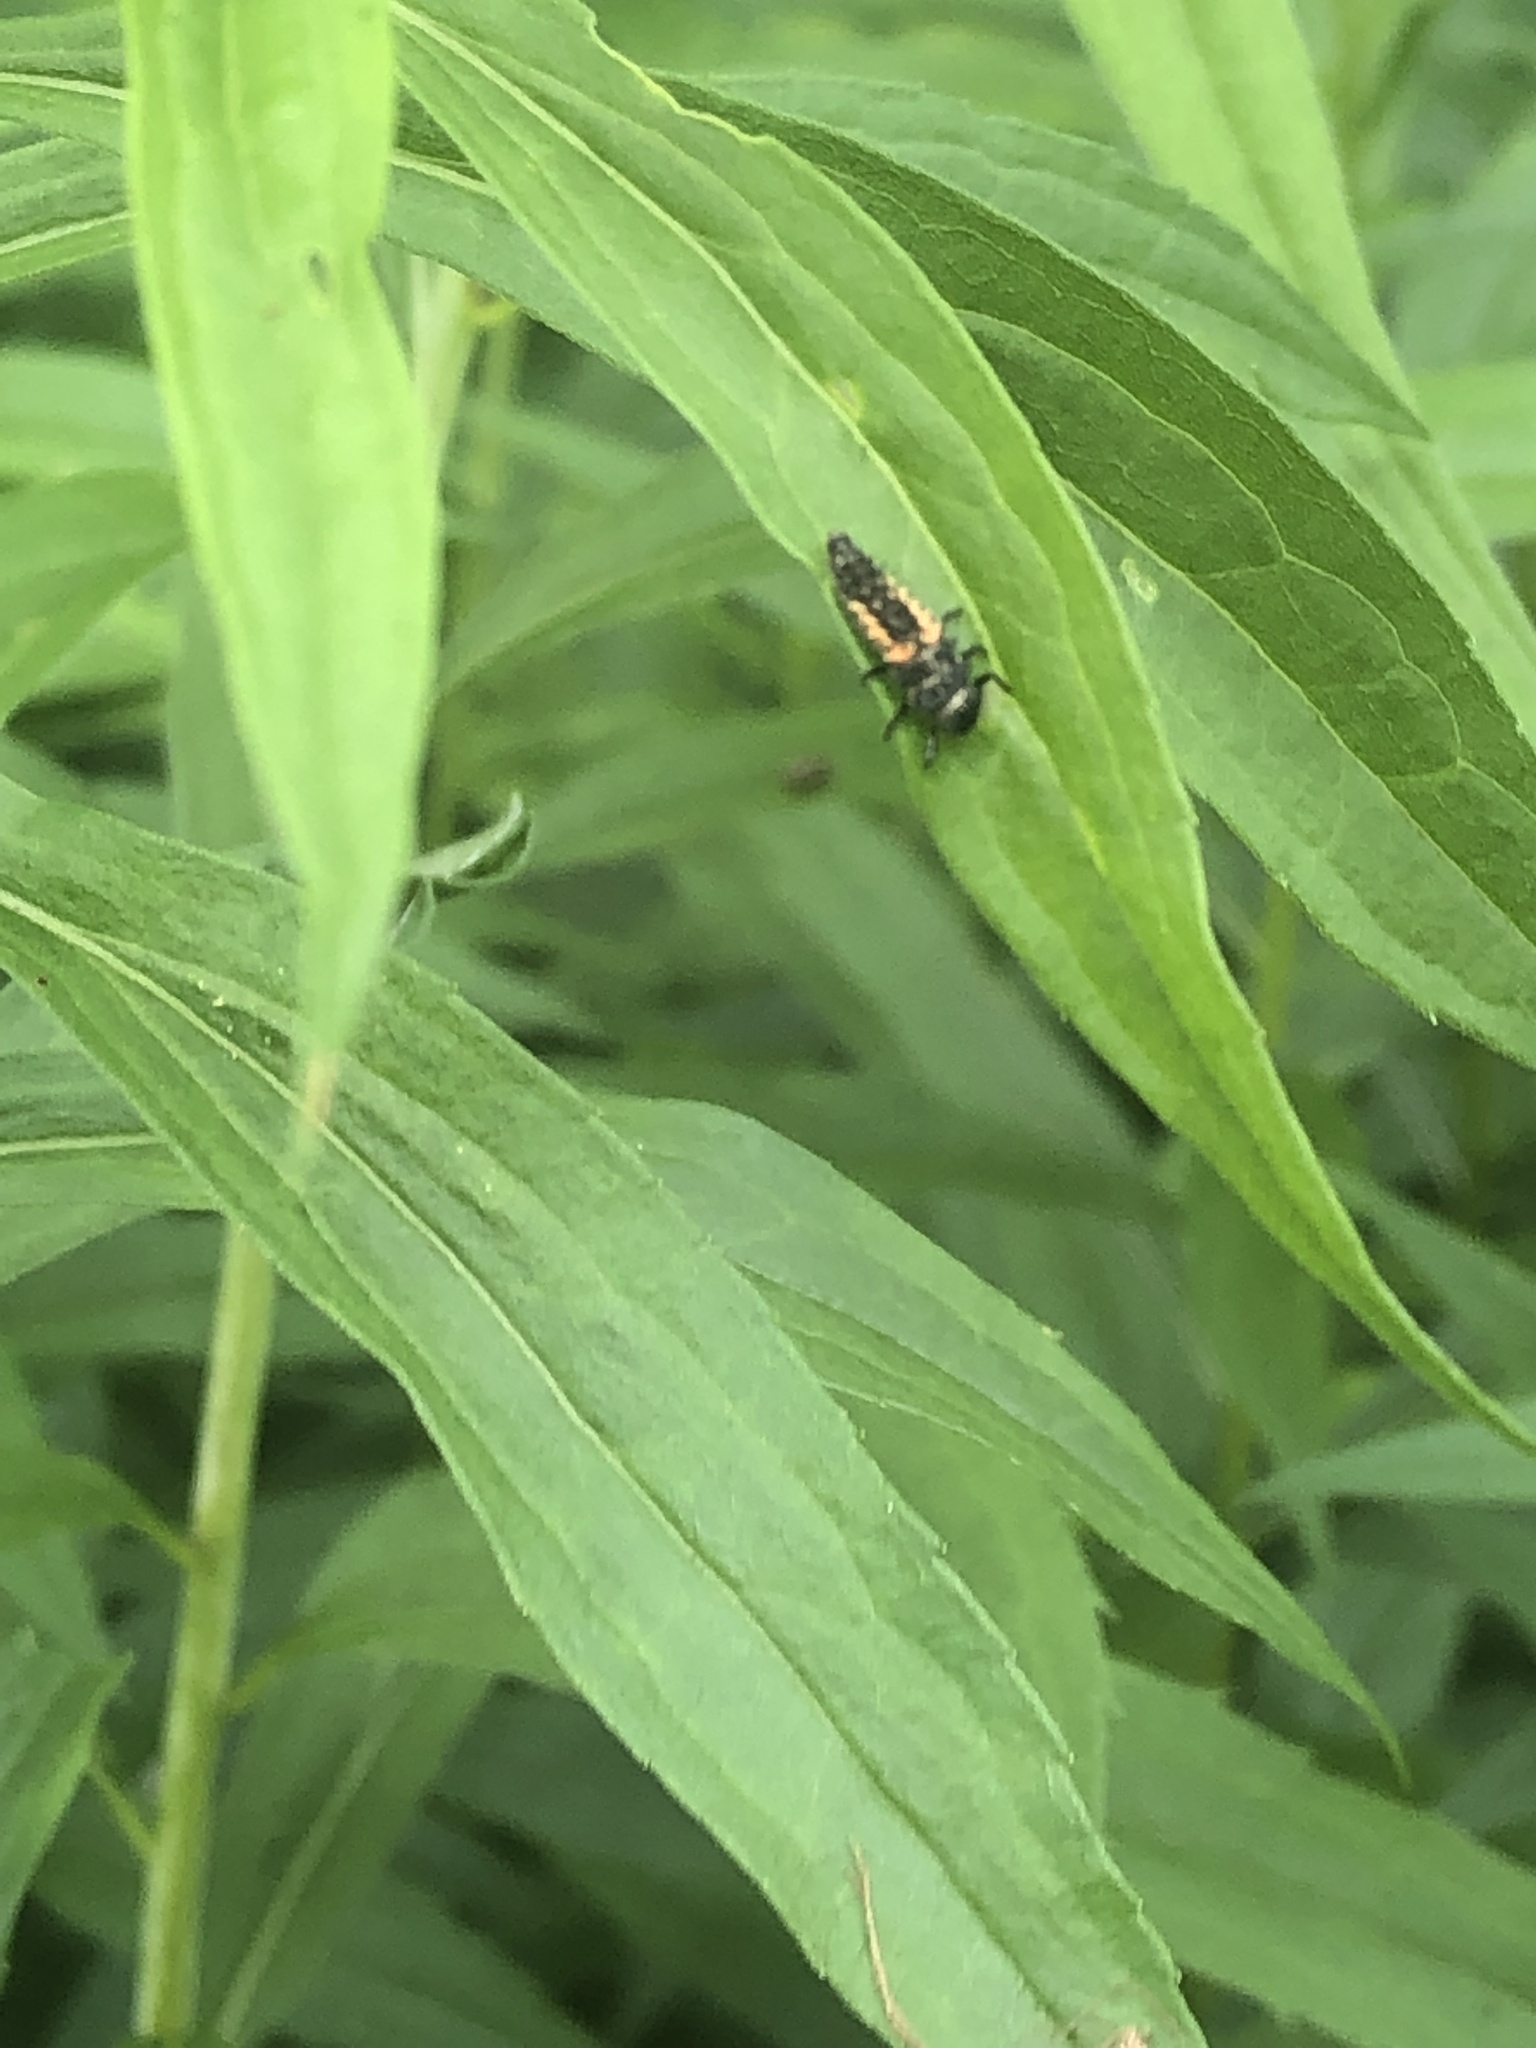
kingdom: Animalia
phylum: Arthropoda
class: Insecta
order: Coleoptera
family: Coccinellidae
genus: Harmonia
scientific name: Harmonia axyridis
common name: Harlequin ladybird
